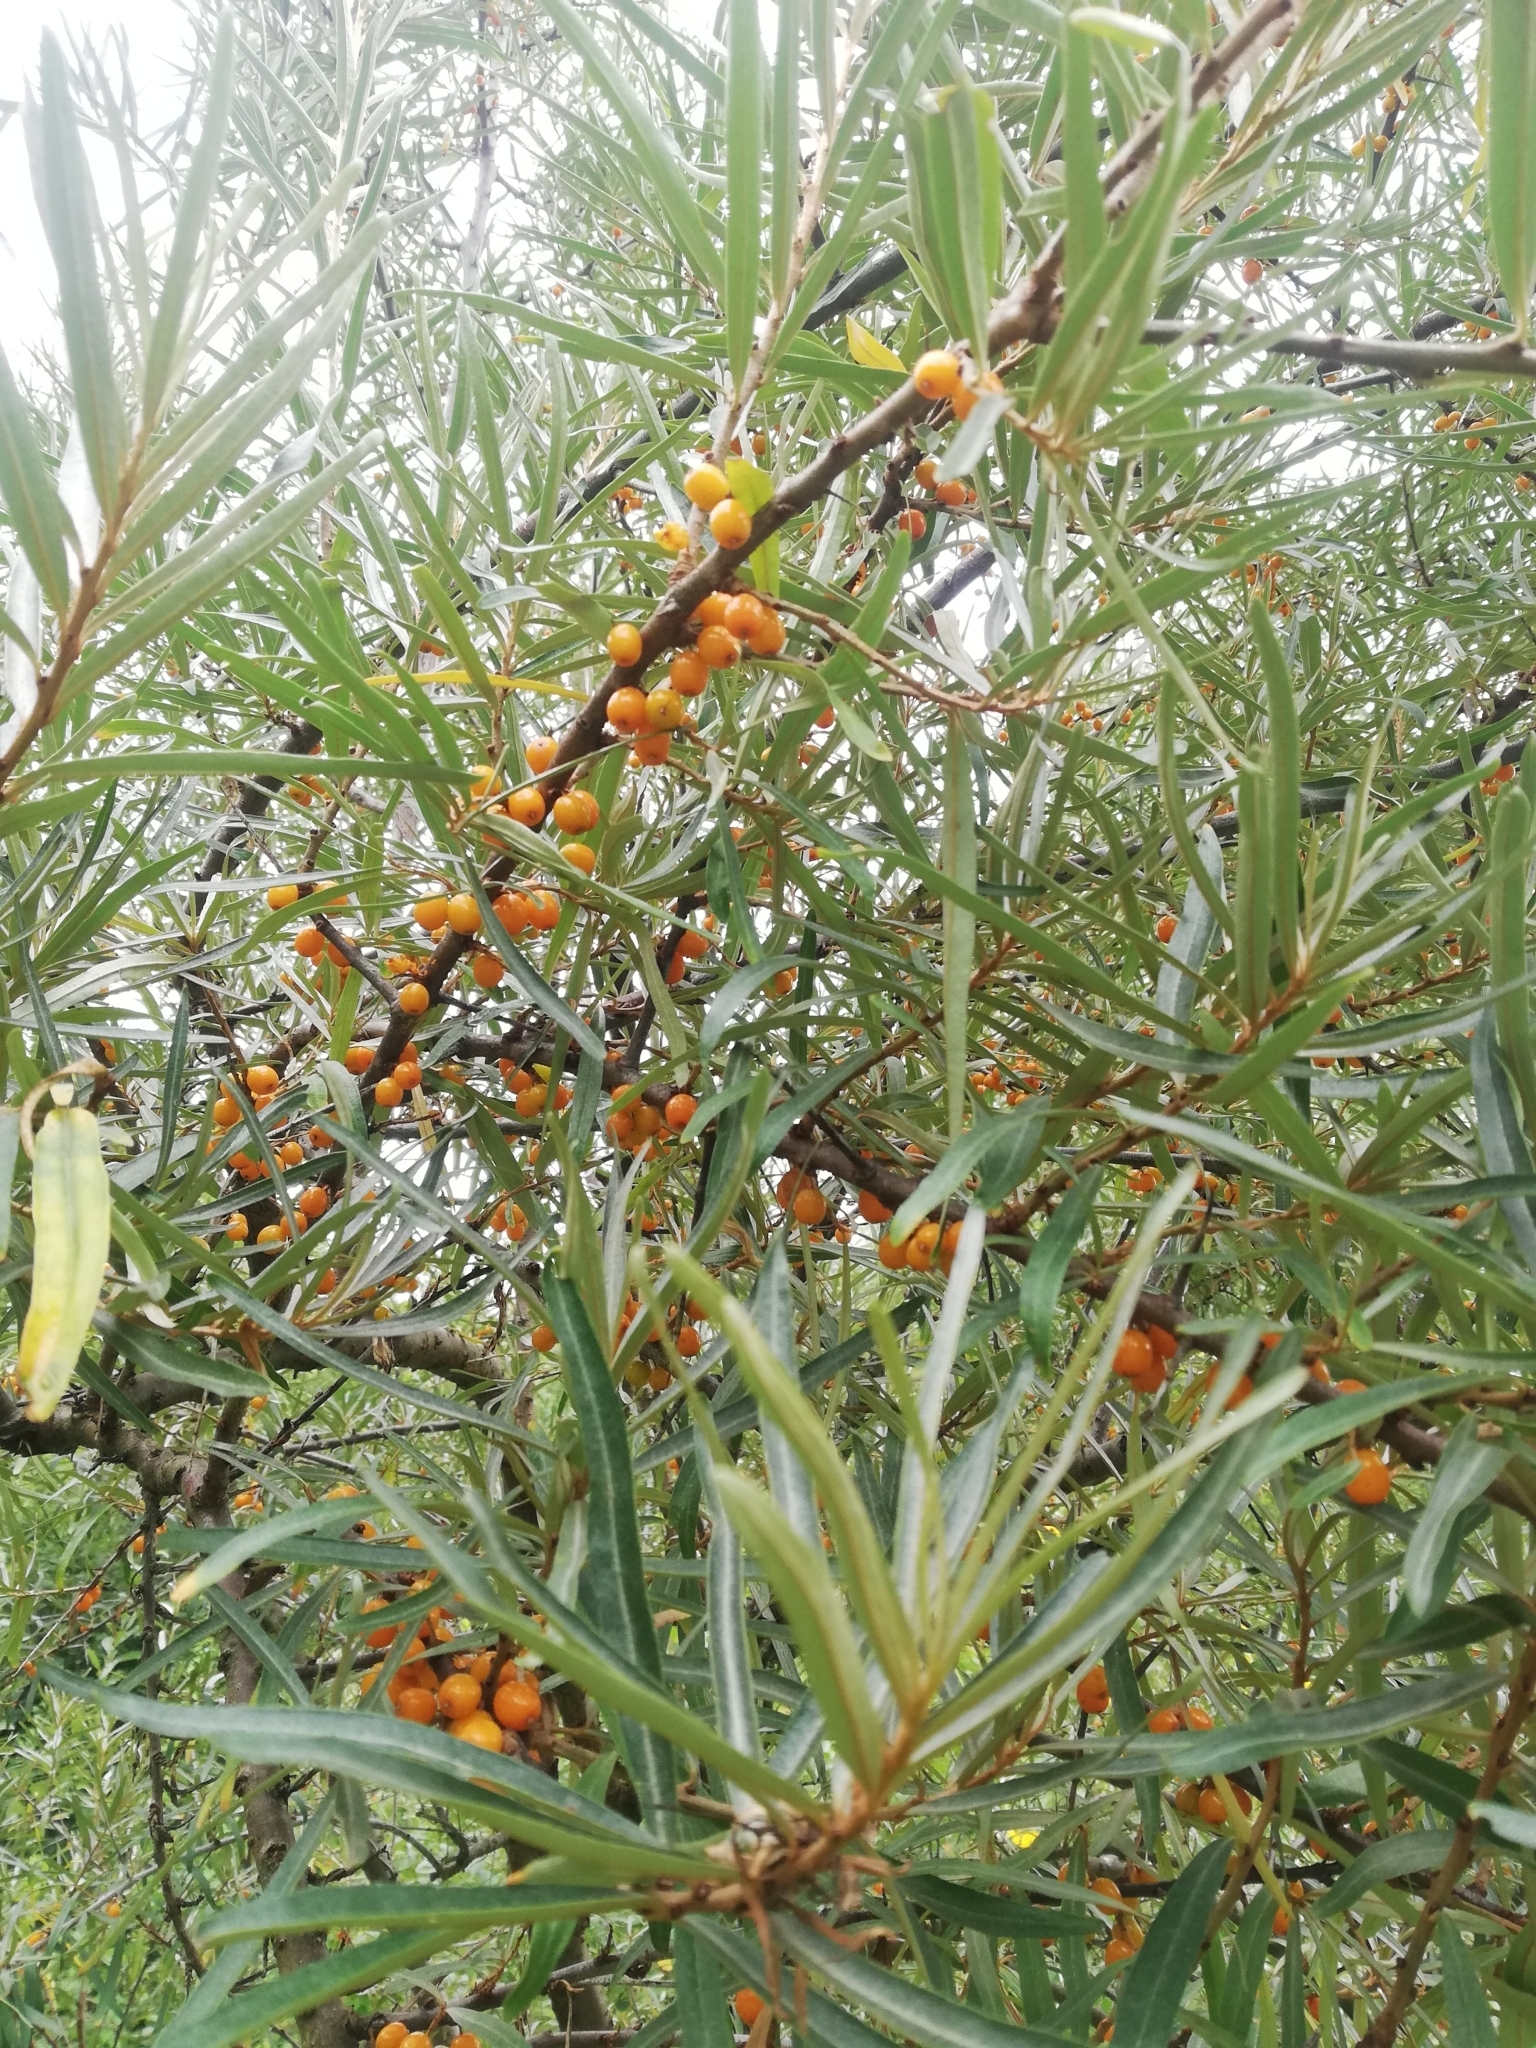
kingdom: Plantae
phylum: Tracheophyta
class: Magnoliopsida
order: Rosales
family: Elaeagnaceae
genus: Hippophae
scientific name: Hippophae rhamnoides
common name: Sea-buckthorn
